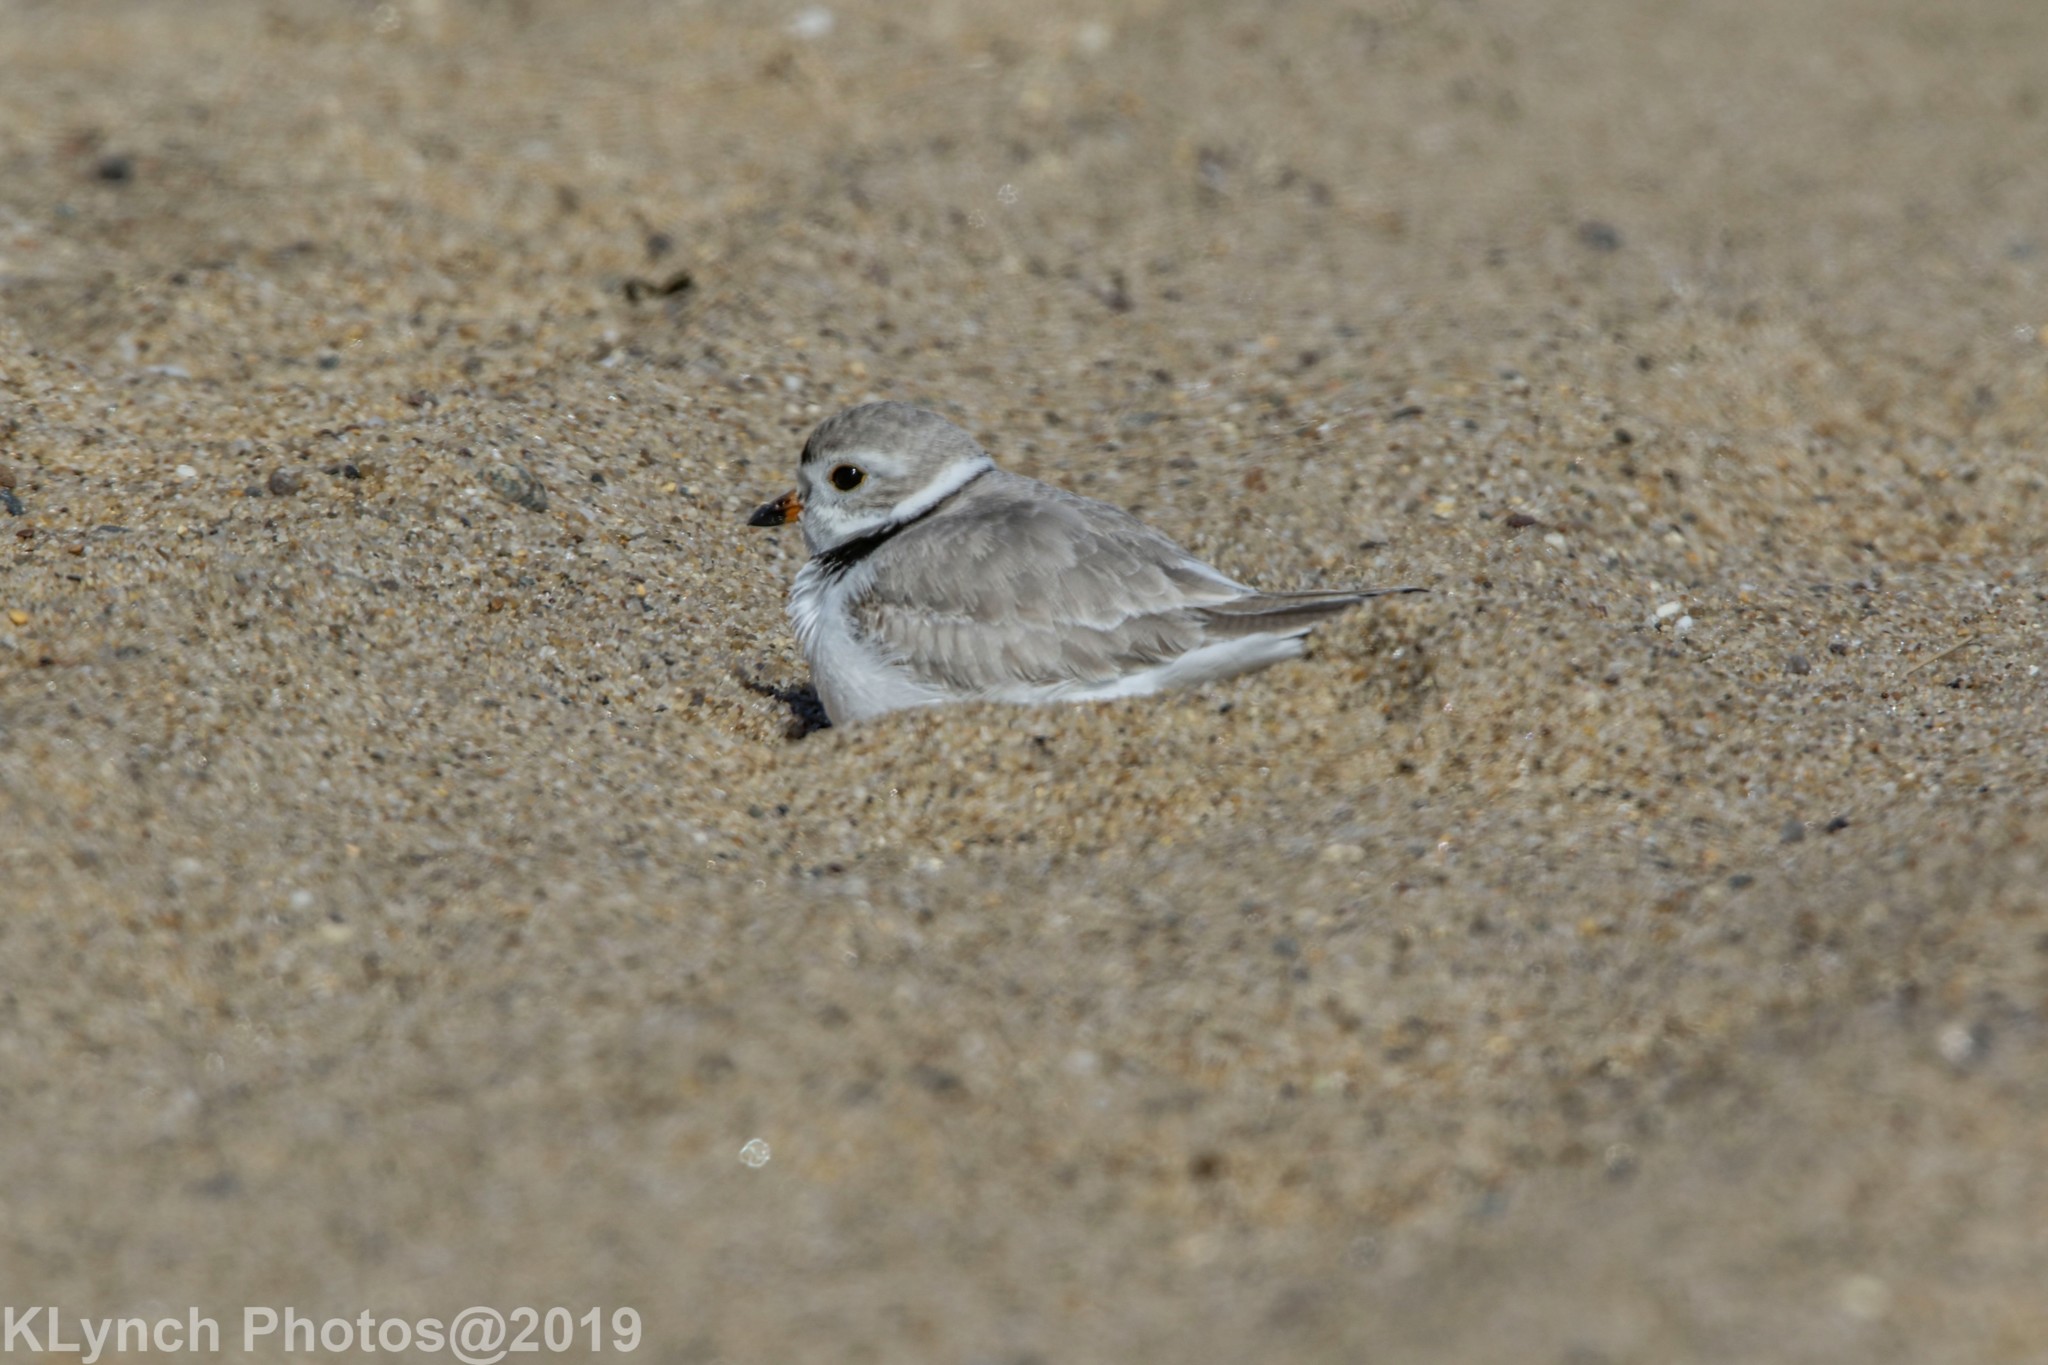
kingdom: Animalia
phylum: Chordata
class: Aves
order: Charadriiformes
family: Charadriidae
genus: Charadrius
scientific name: Charadrius melodus
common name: Piping plover
